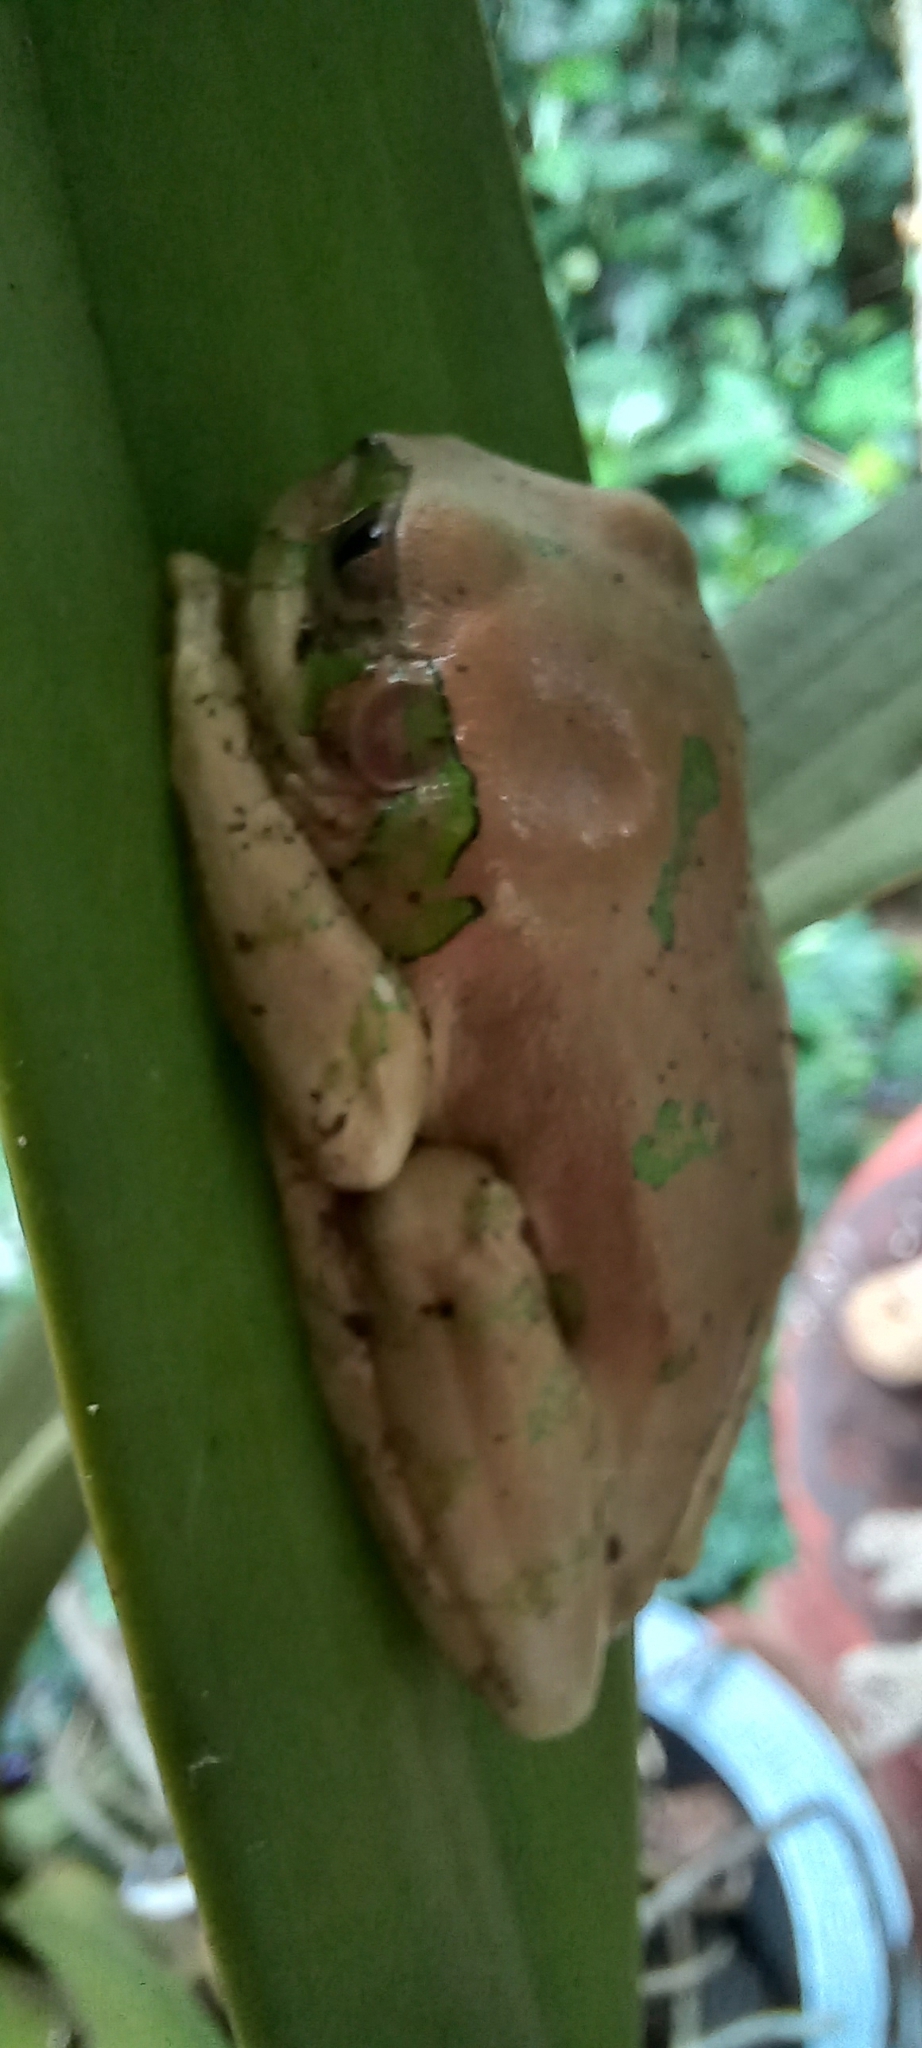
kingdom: Animalia
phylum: Chordata
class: Amphibia
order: Anura
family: Arthroleptidae
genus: Leptopelis
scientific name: Leptopelis natalensis
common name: Natal tree frog
